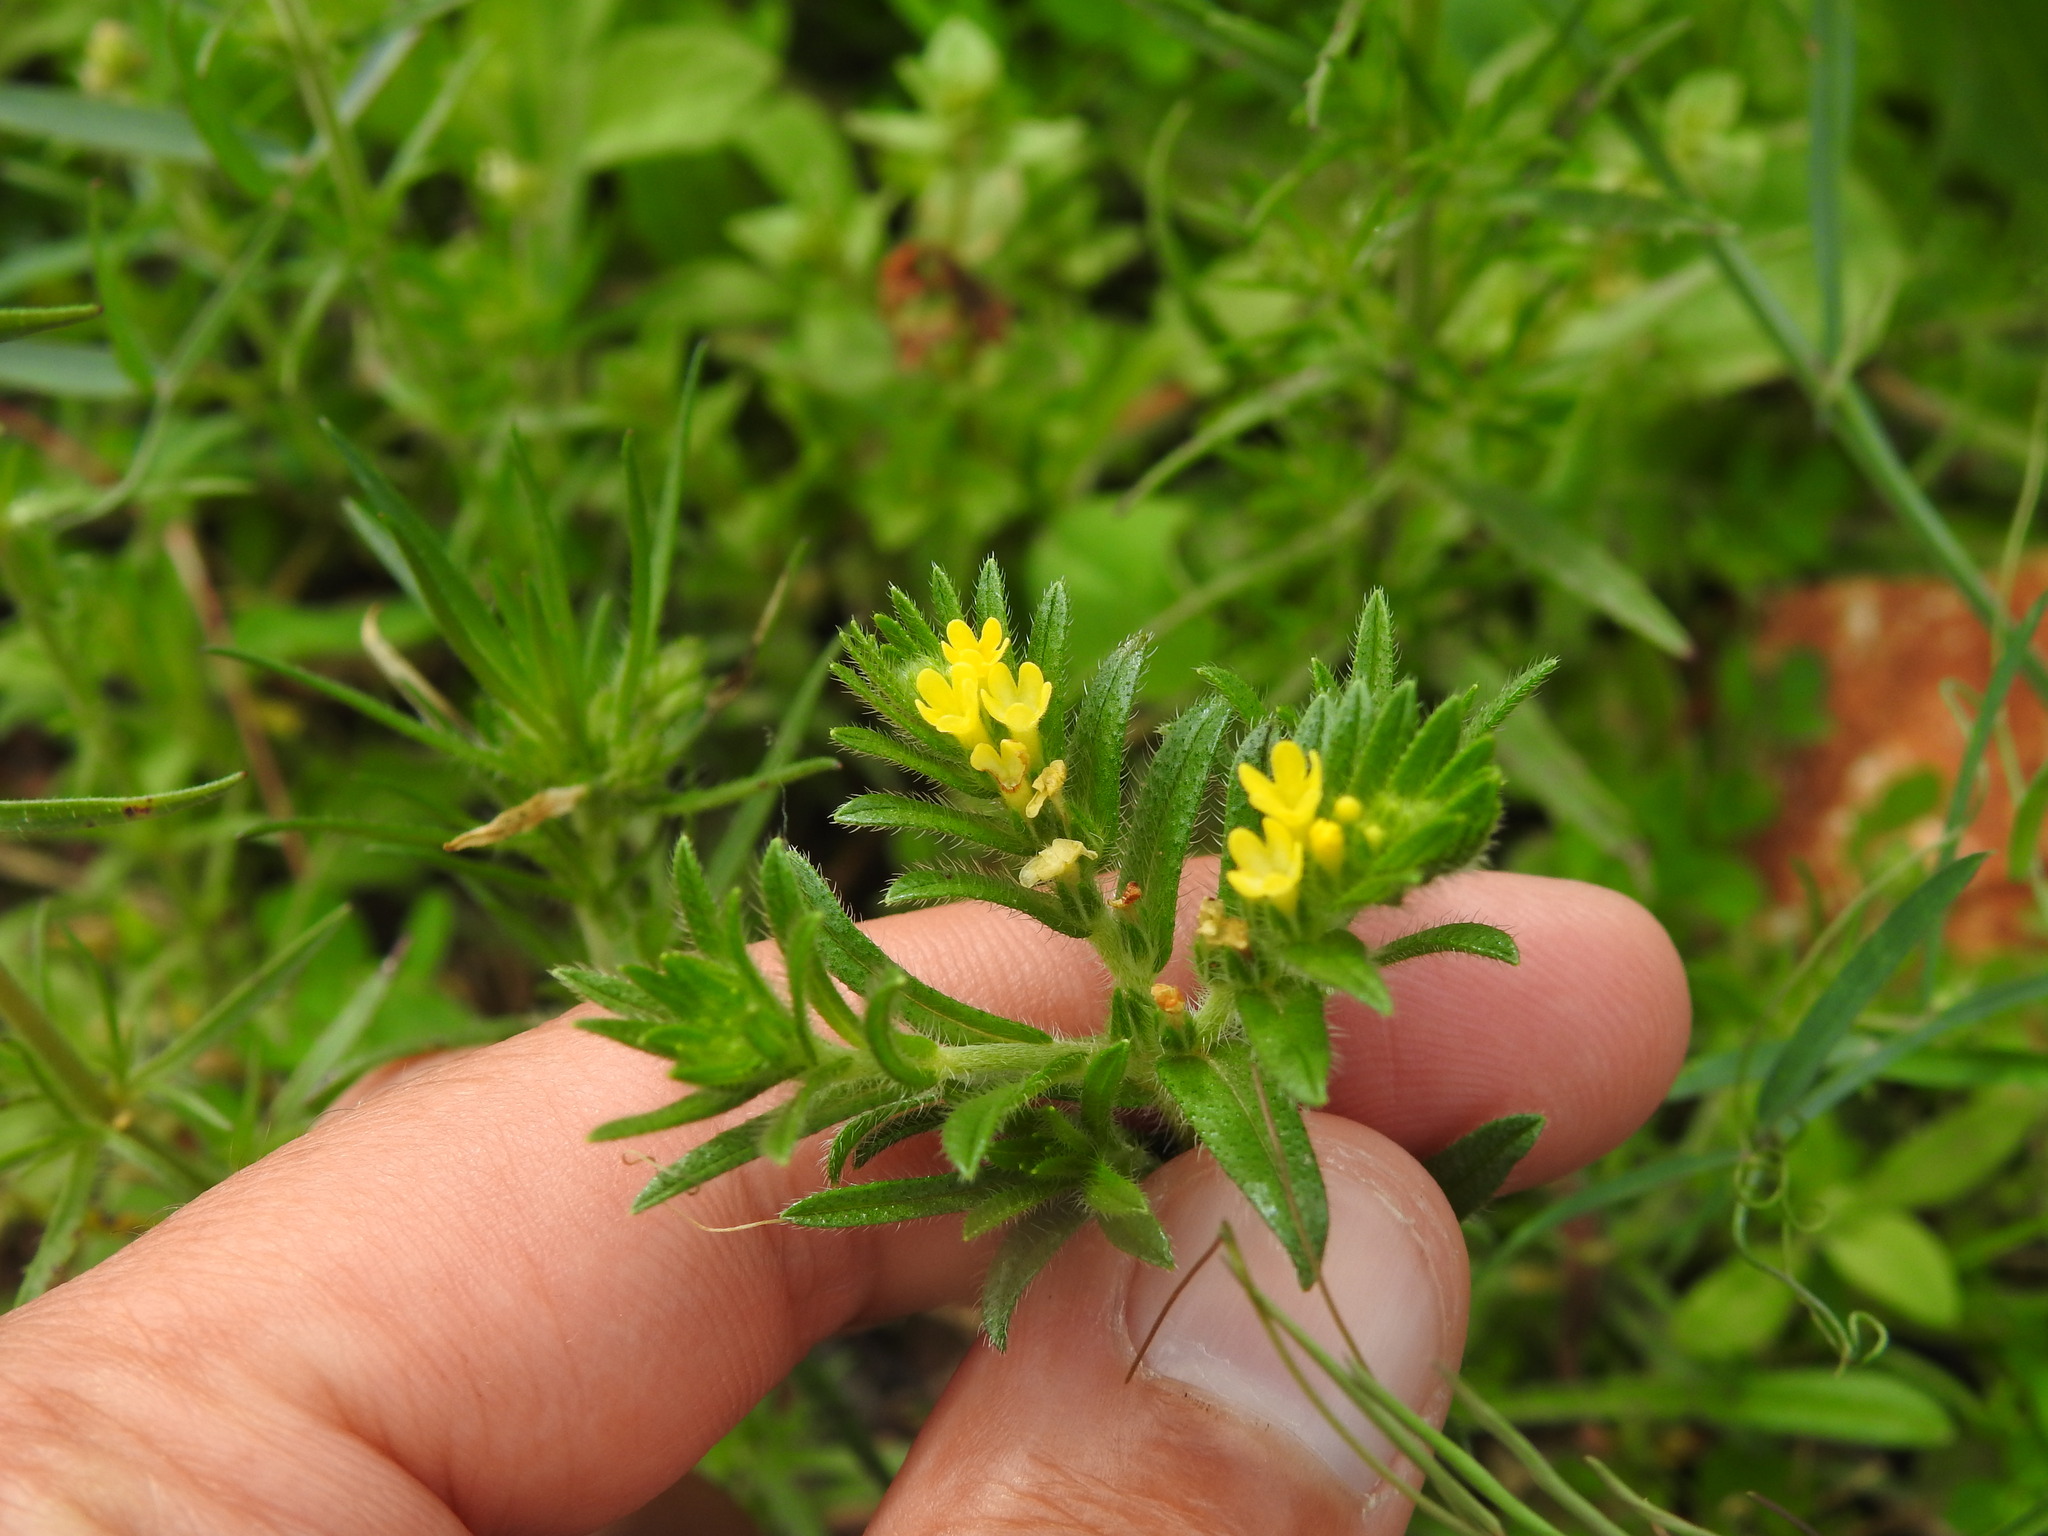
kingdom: Plantae
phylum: Tracheophyta
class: Magnoliopsida
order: Boraginales
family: Boraginaceae
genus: Neatostema
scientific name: Neatostema apulum
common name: Hairy sheepweed
